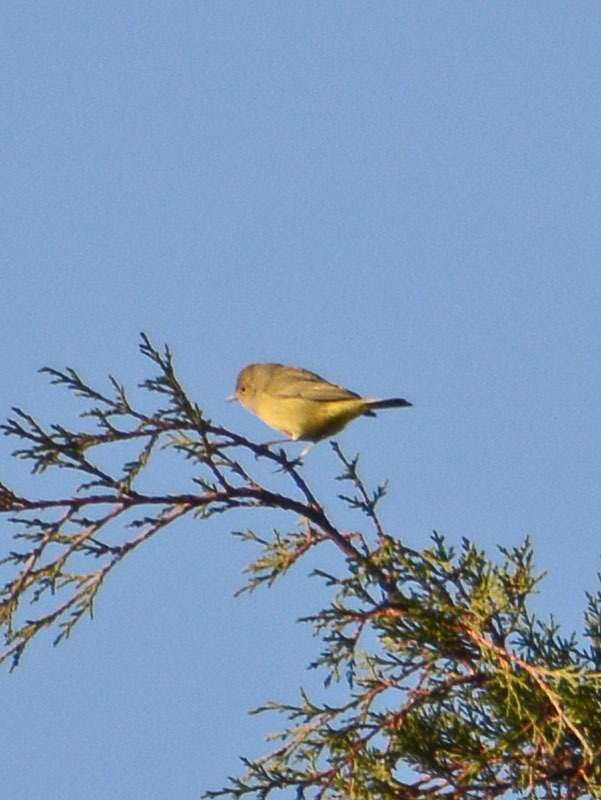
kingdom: Animalia
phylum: Chordata
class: Aves
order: Passeriformes
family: Parulidae
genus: Leiothlypis
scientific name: Leiothlypis celata
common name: Orange-crowned warbler
